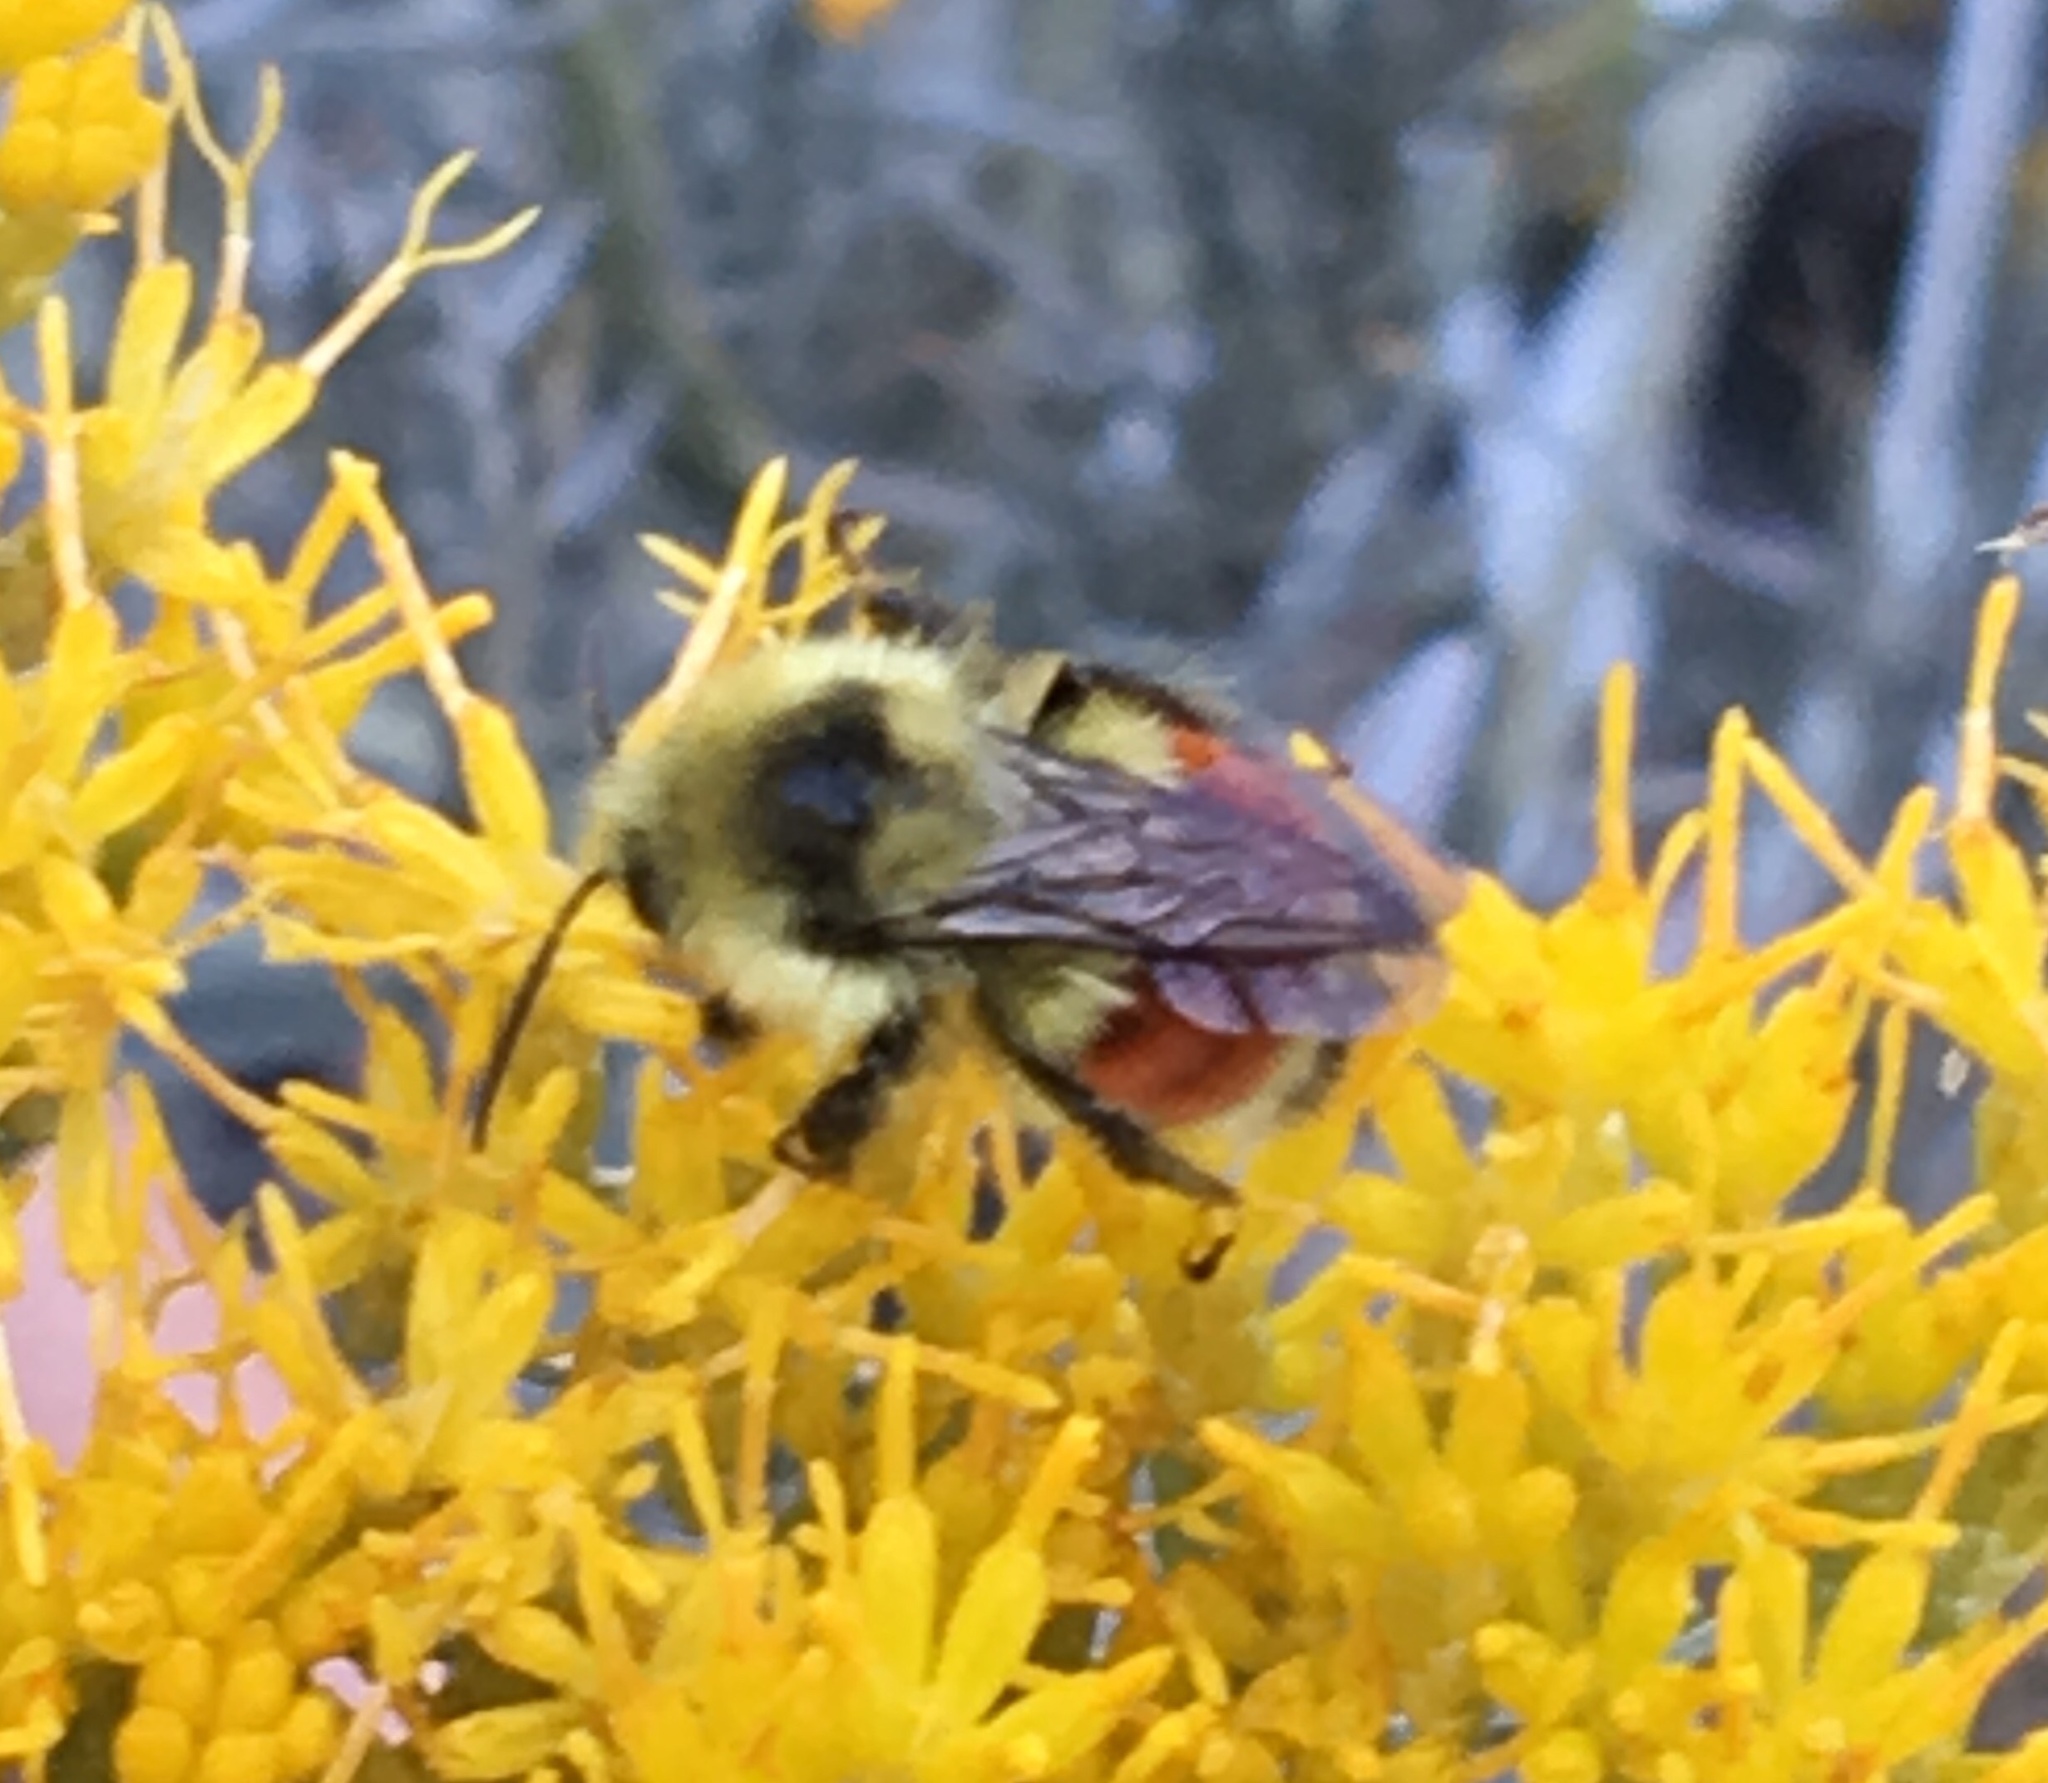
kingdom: Animalia
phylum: Arthropoda
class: Insecta
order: Hymenoptera
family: Apidae
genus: Bombus
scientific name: Bombus huntii
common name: Hunt bumble bee
